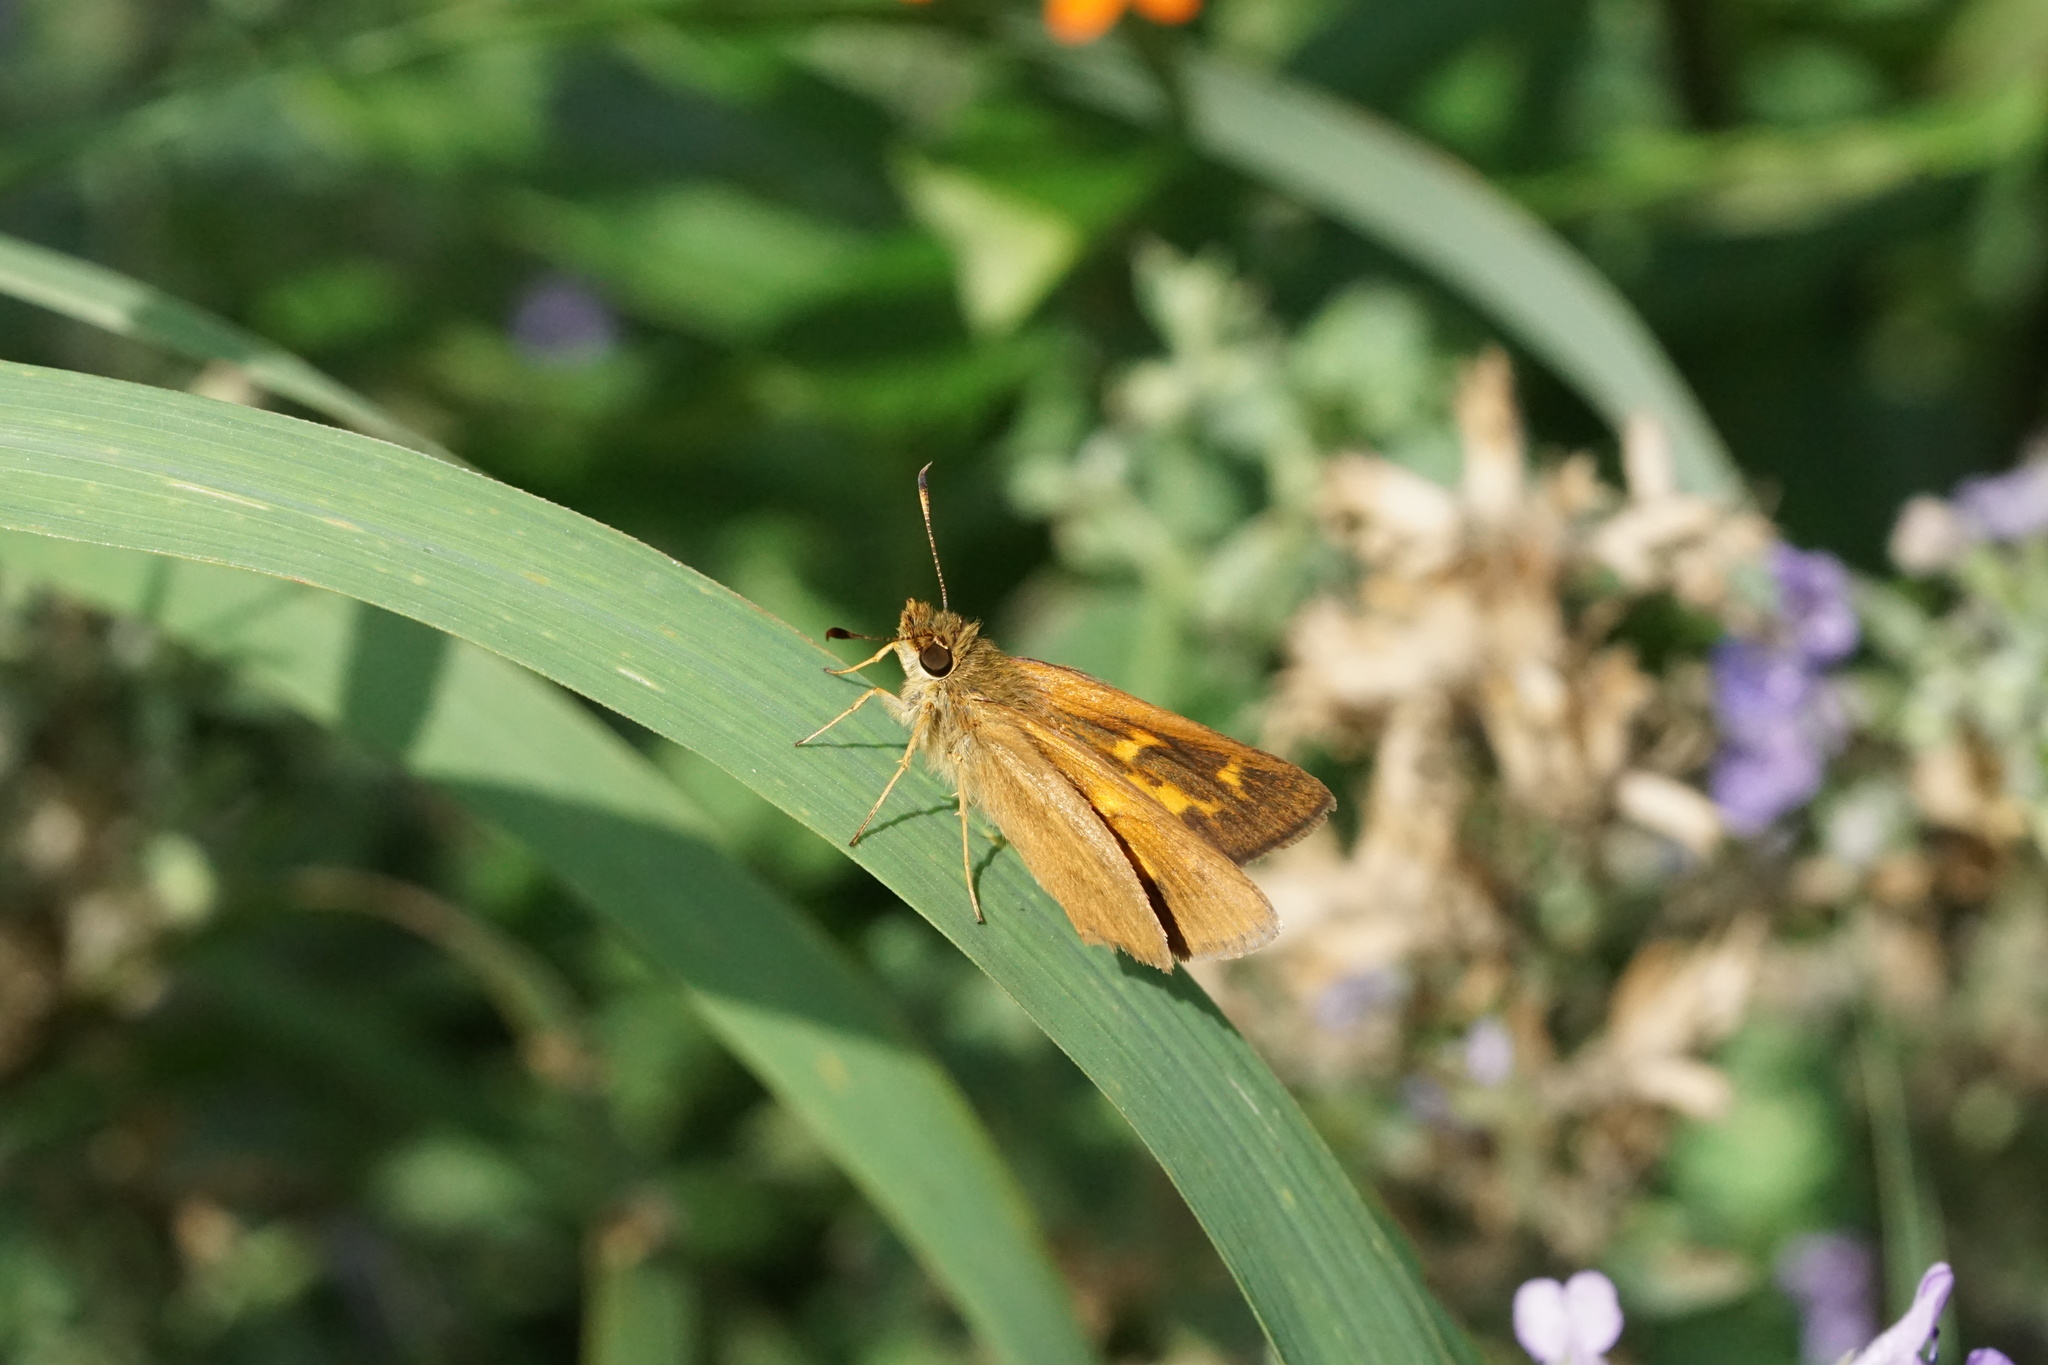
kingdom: Animalia
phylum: Arthropoda
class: Insecta
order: Lepidoptera
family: Hesperiidae
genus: Poanes
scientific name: Poanes viator
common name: Broad-winged skipper
